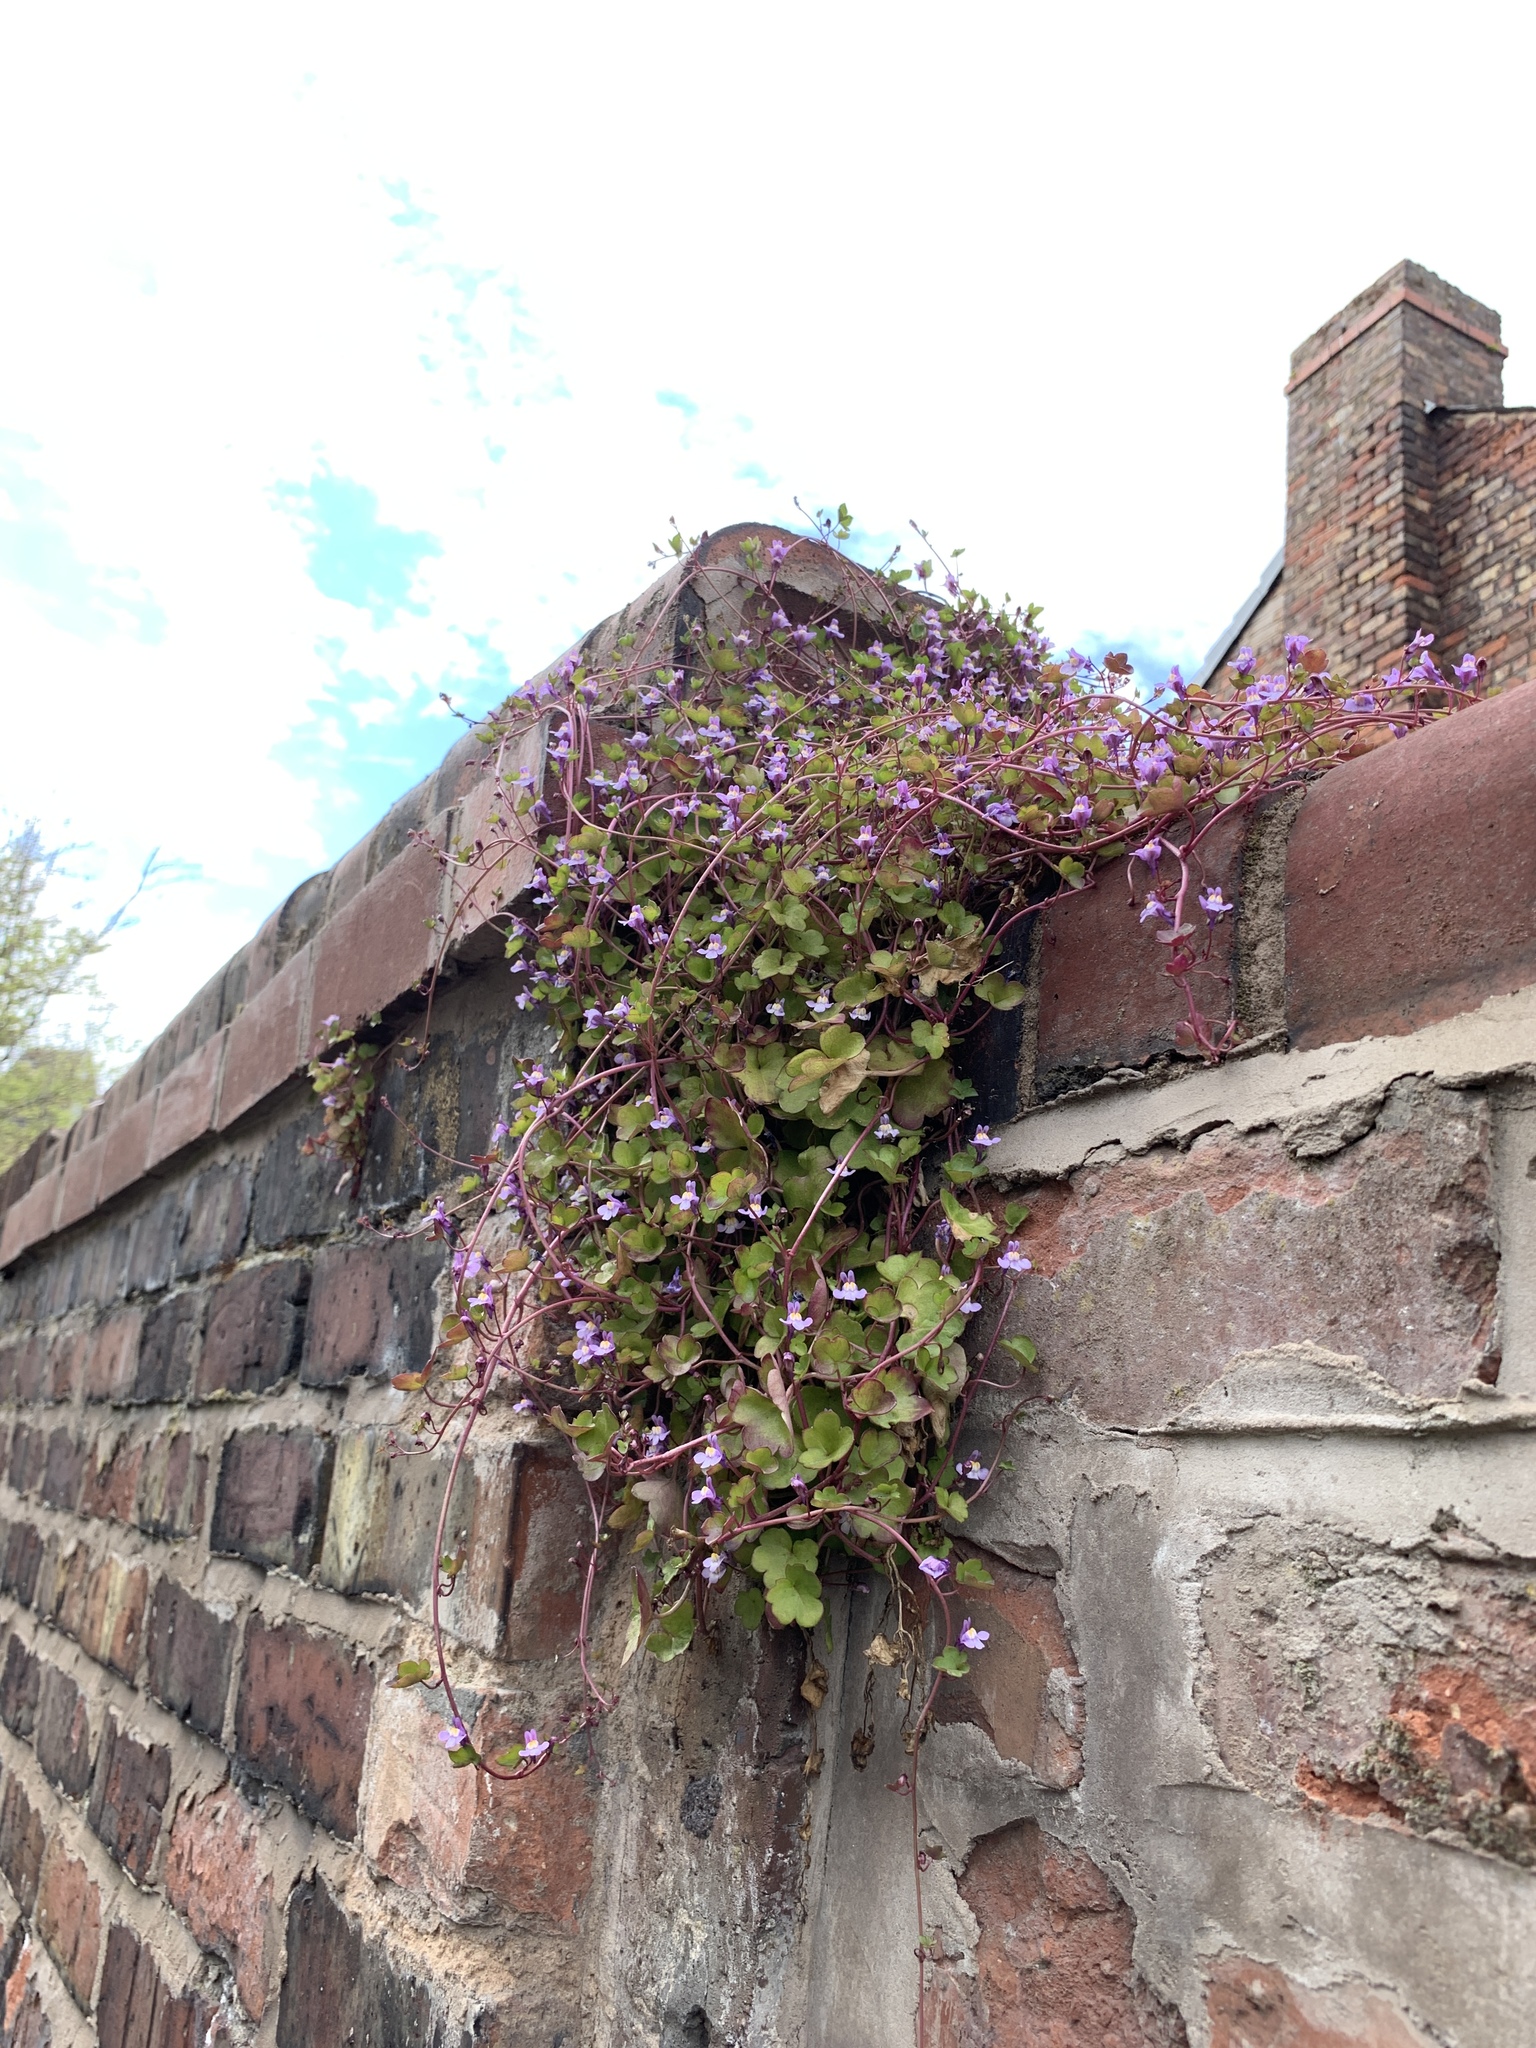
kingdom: Plantae
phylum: Tracheophyta
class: Magnoliopsida
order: Lamiales
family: Plantaginaceae
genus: Cymbalaria
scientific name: Cymbalaria muralis
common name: Ivy-leaved toadflax
